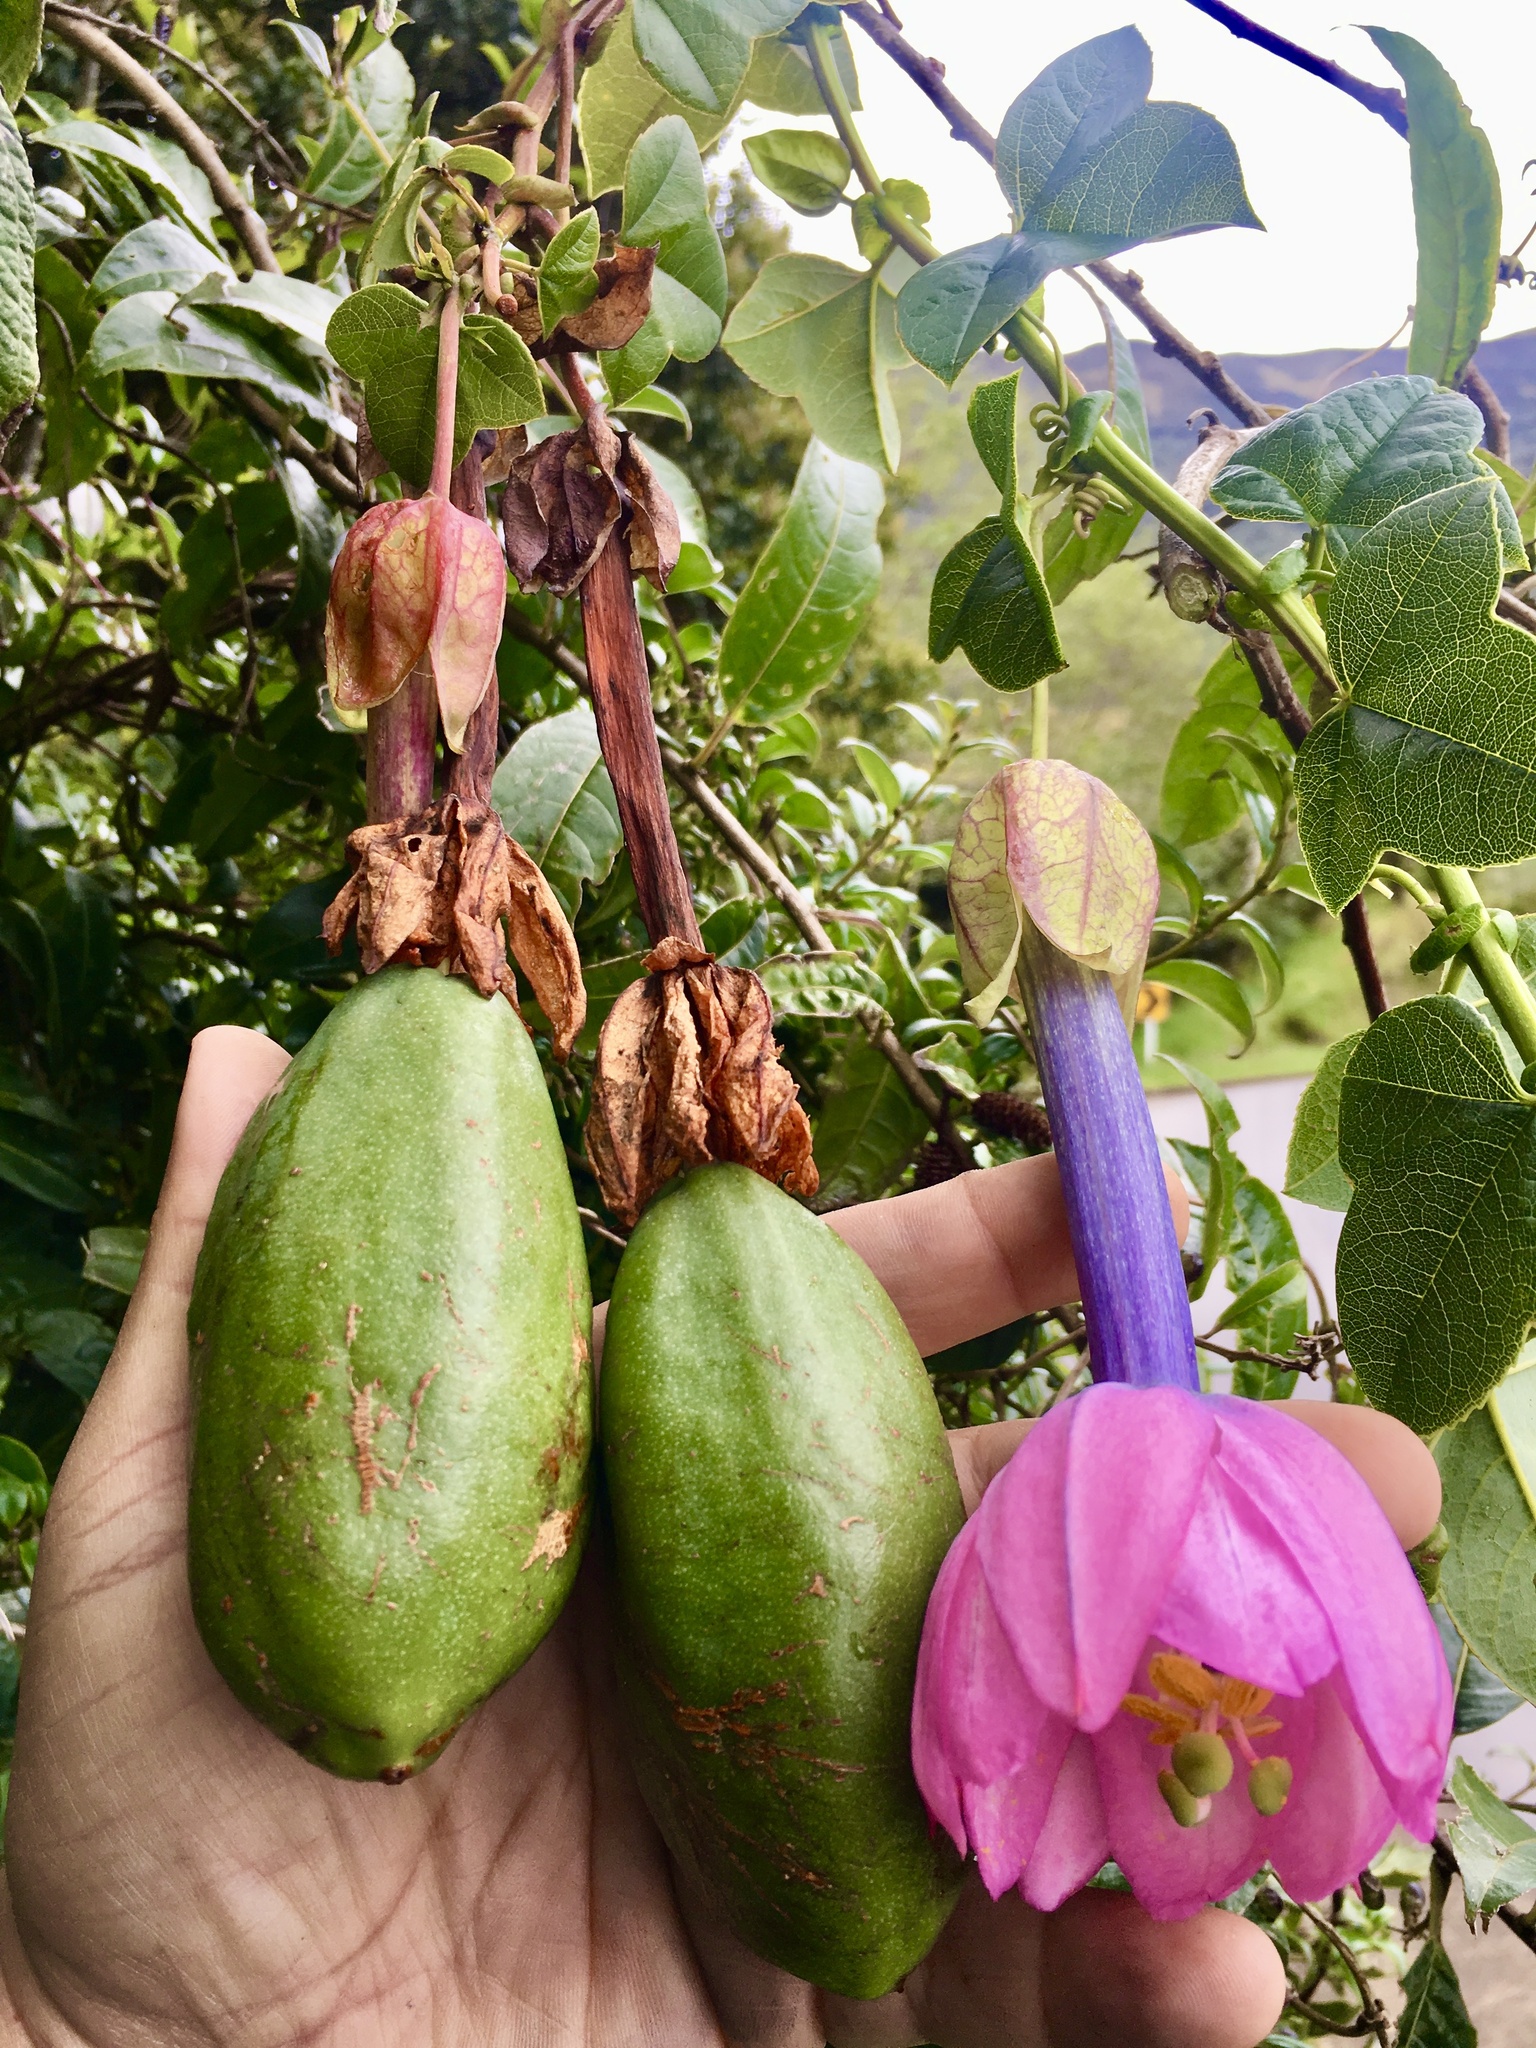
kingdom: Plantae
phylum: Tracheophyta
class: Magnoliopsida
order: Malpighiales
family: Passifloraceae
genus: Passiflora
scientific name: Passiflora cumbalensis
